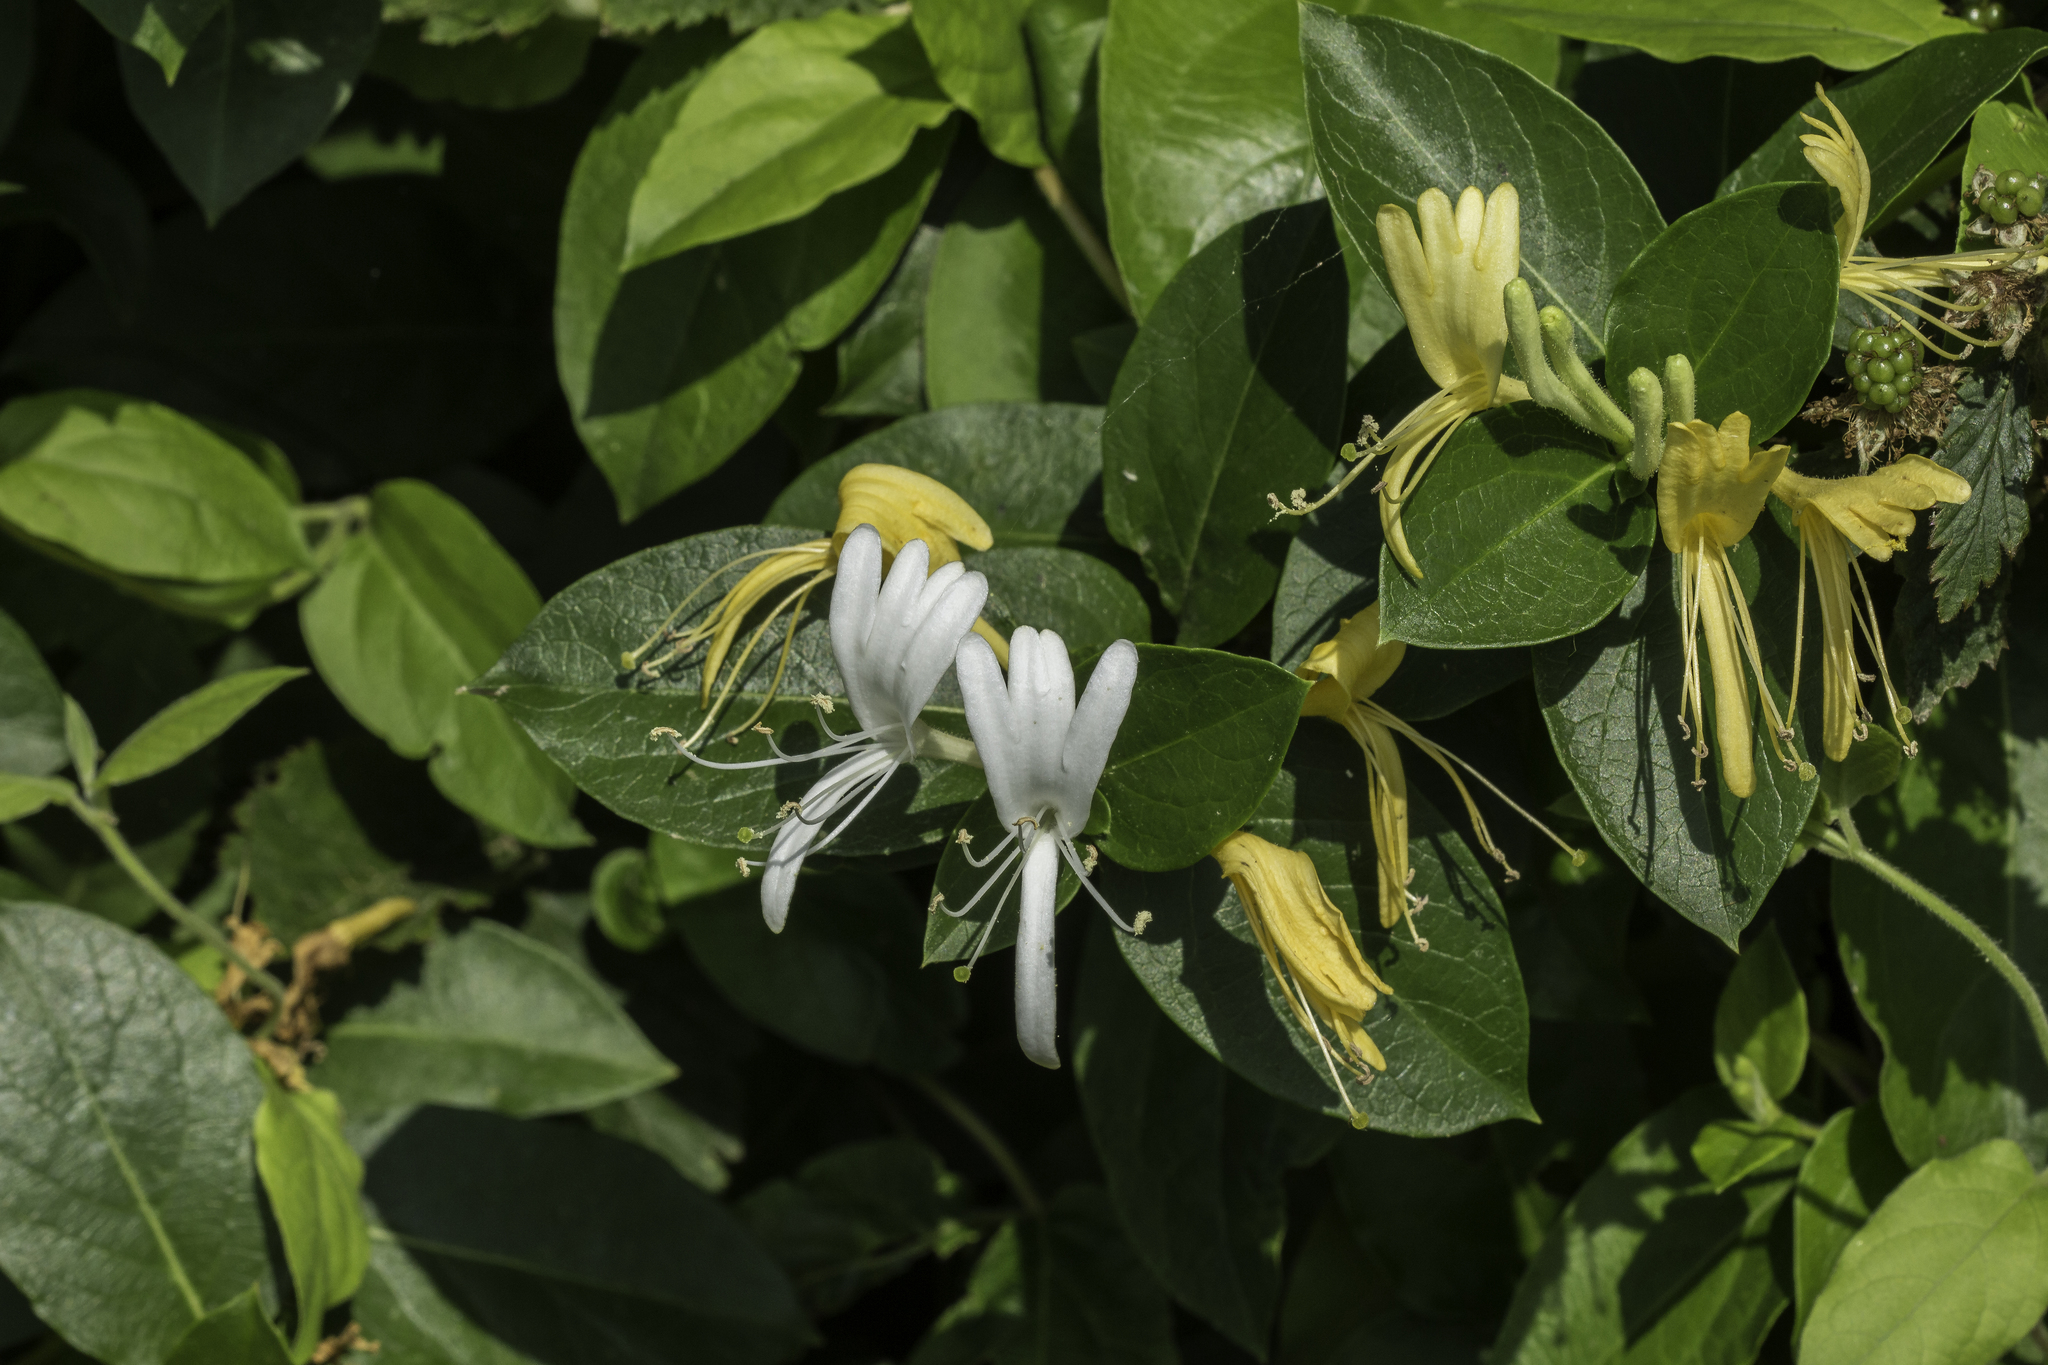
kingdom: Plantae
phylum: Tracheophyta
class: Magnoliopsida
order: Dipsacales
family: Caprifoliaceae
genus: Lonicera
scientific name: Lonicera japonica
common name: Japanese honeysuckle
